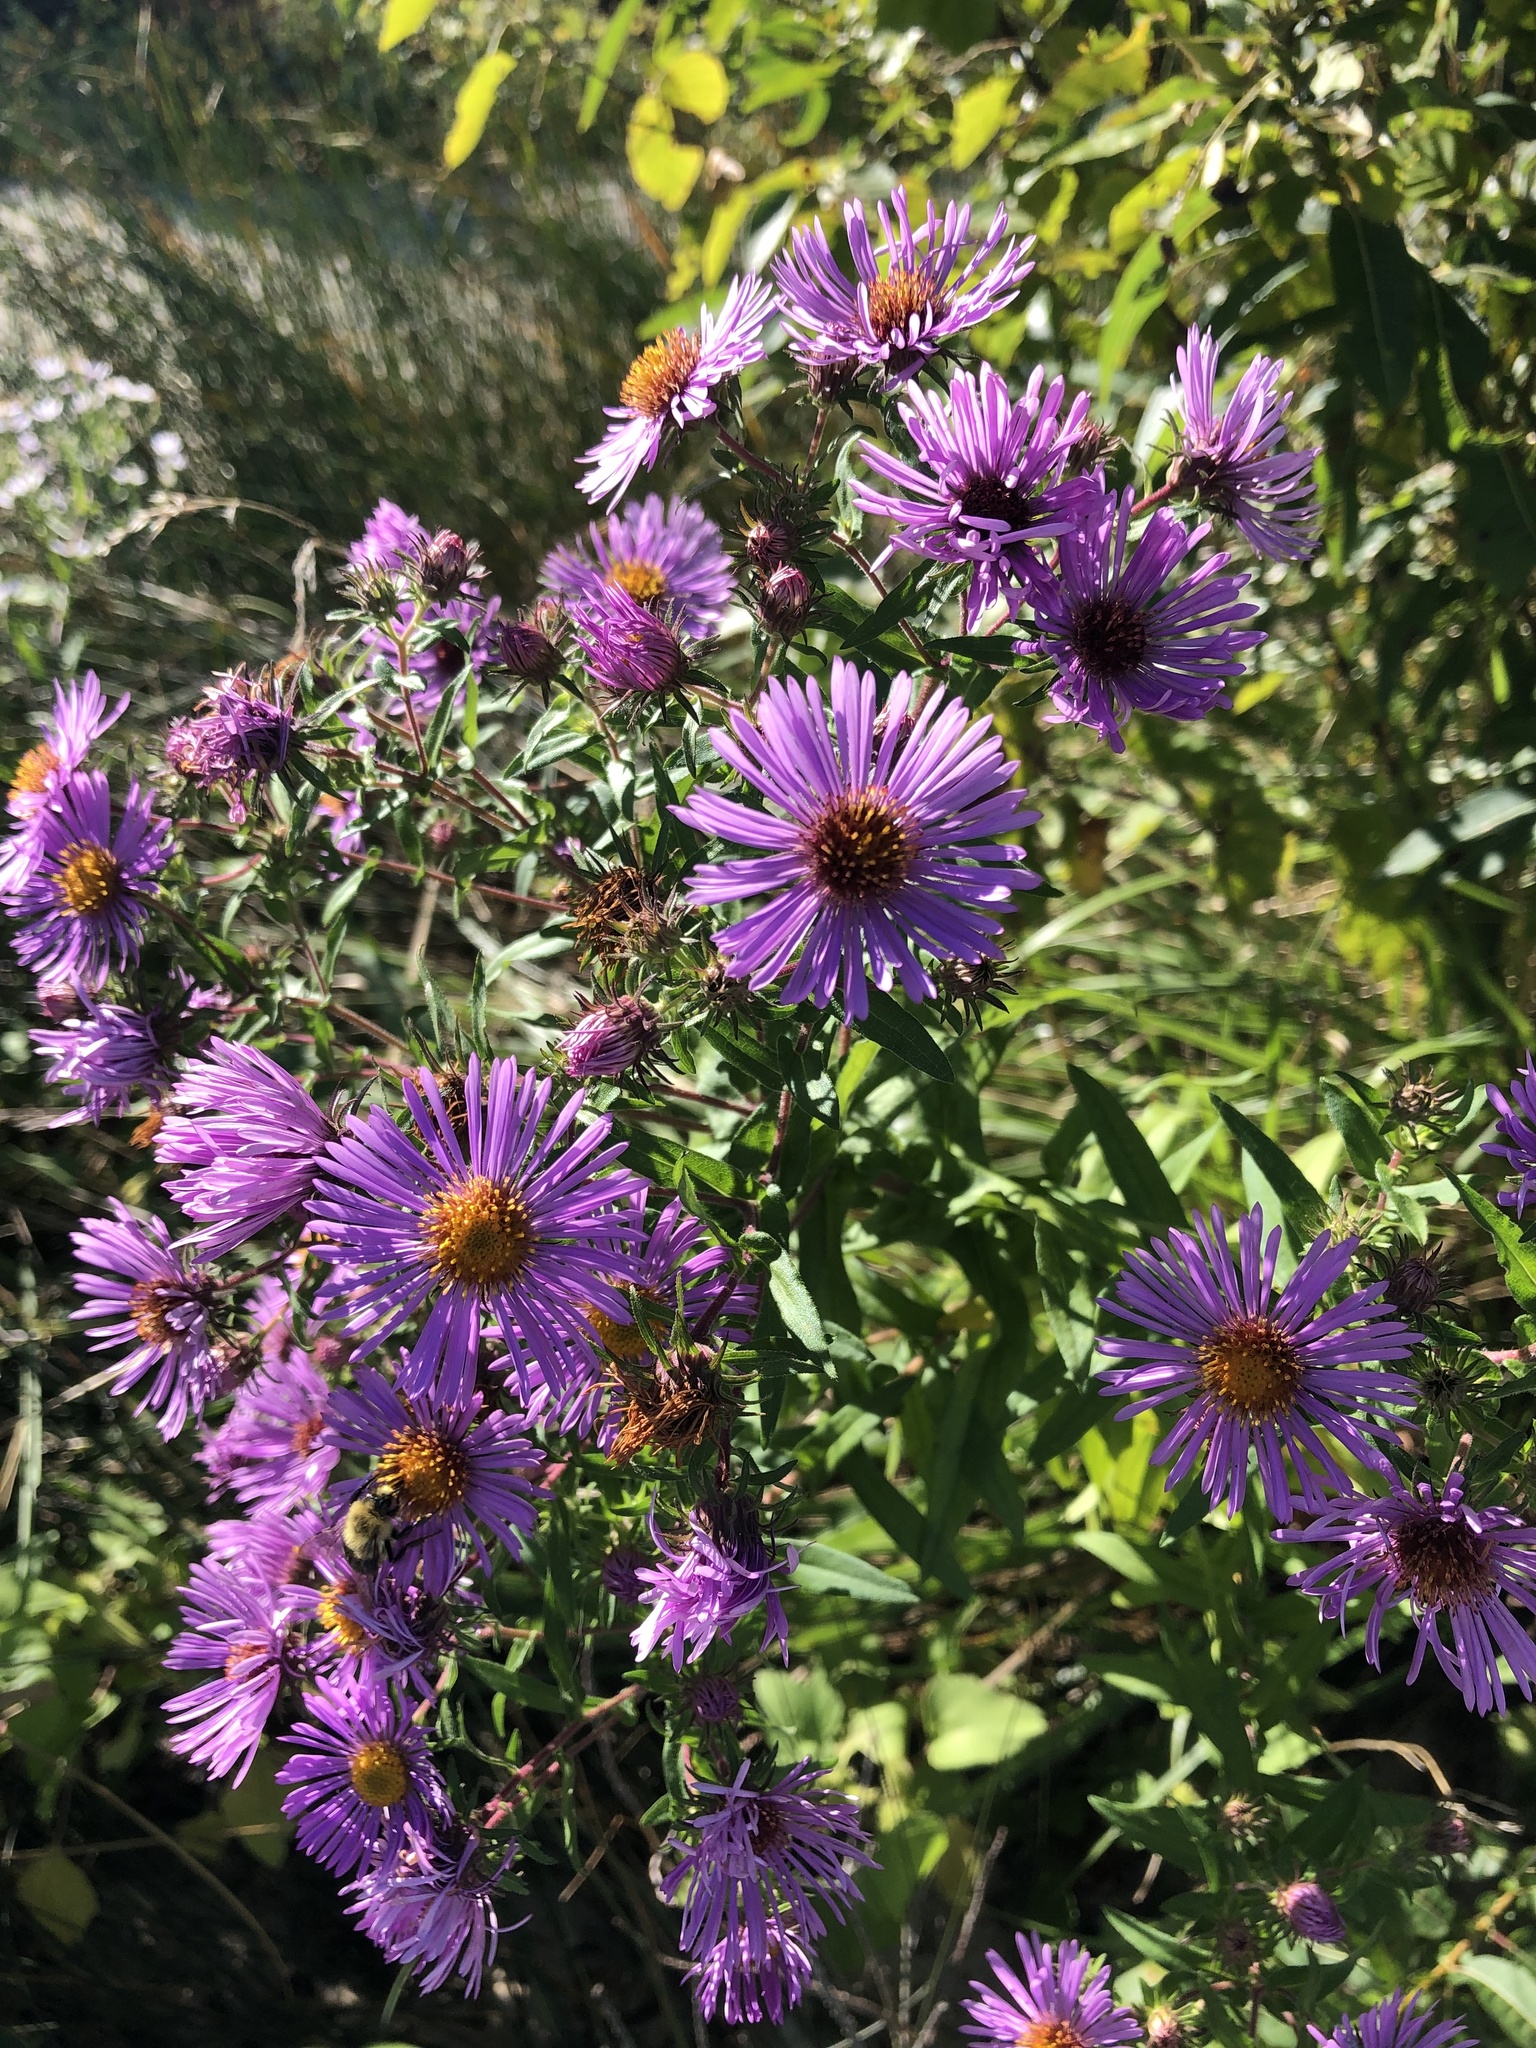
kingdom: Plantae
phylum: Tracheophyta
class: Magnoliopsida
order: Asterales
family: Asteraceae
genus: Symphyotrichum
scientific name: Symphyotrichum novae-angliae
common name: Michaelmas daisy
